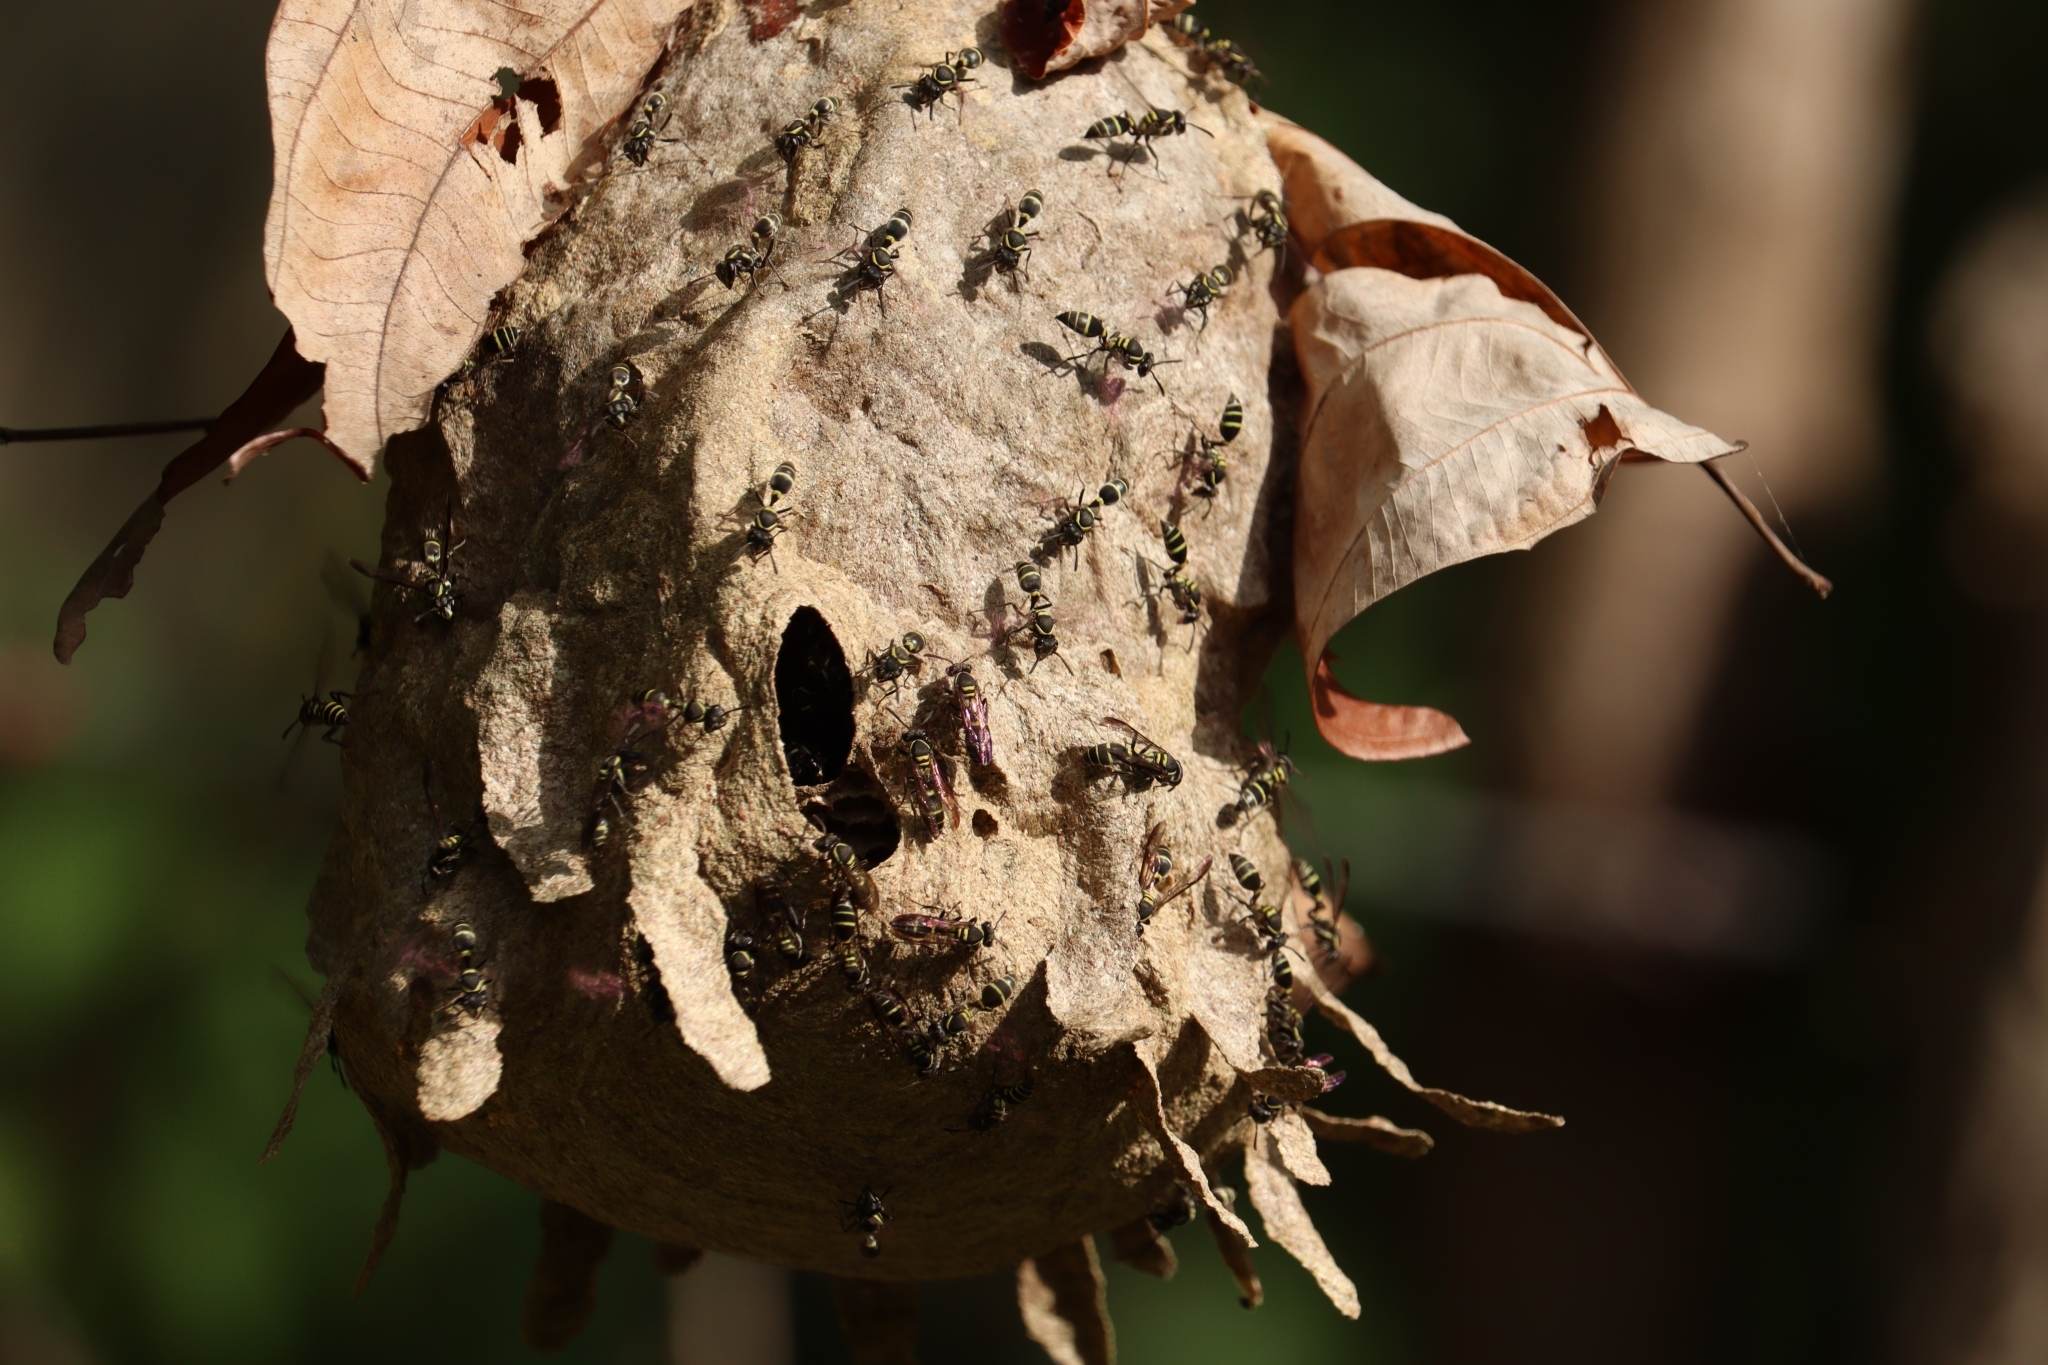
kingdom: Animalia
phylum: Arthropoda
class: Insecta
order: Hymenoptera
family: Eumenidae
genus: Polybia
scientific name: Polybia occidentalis
